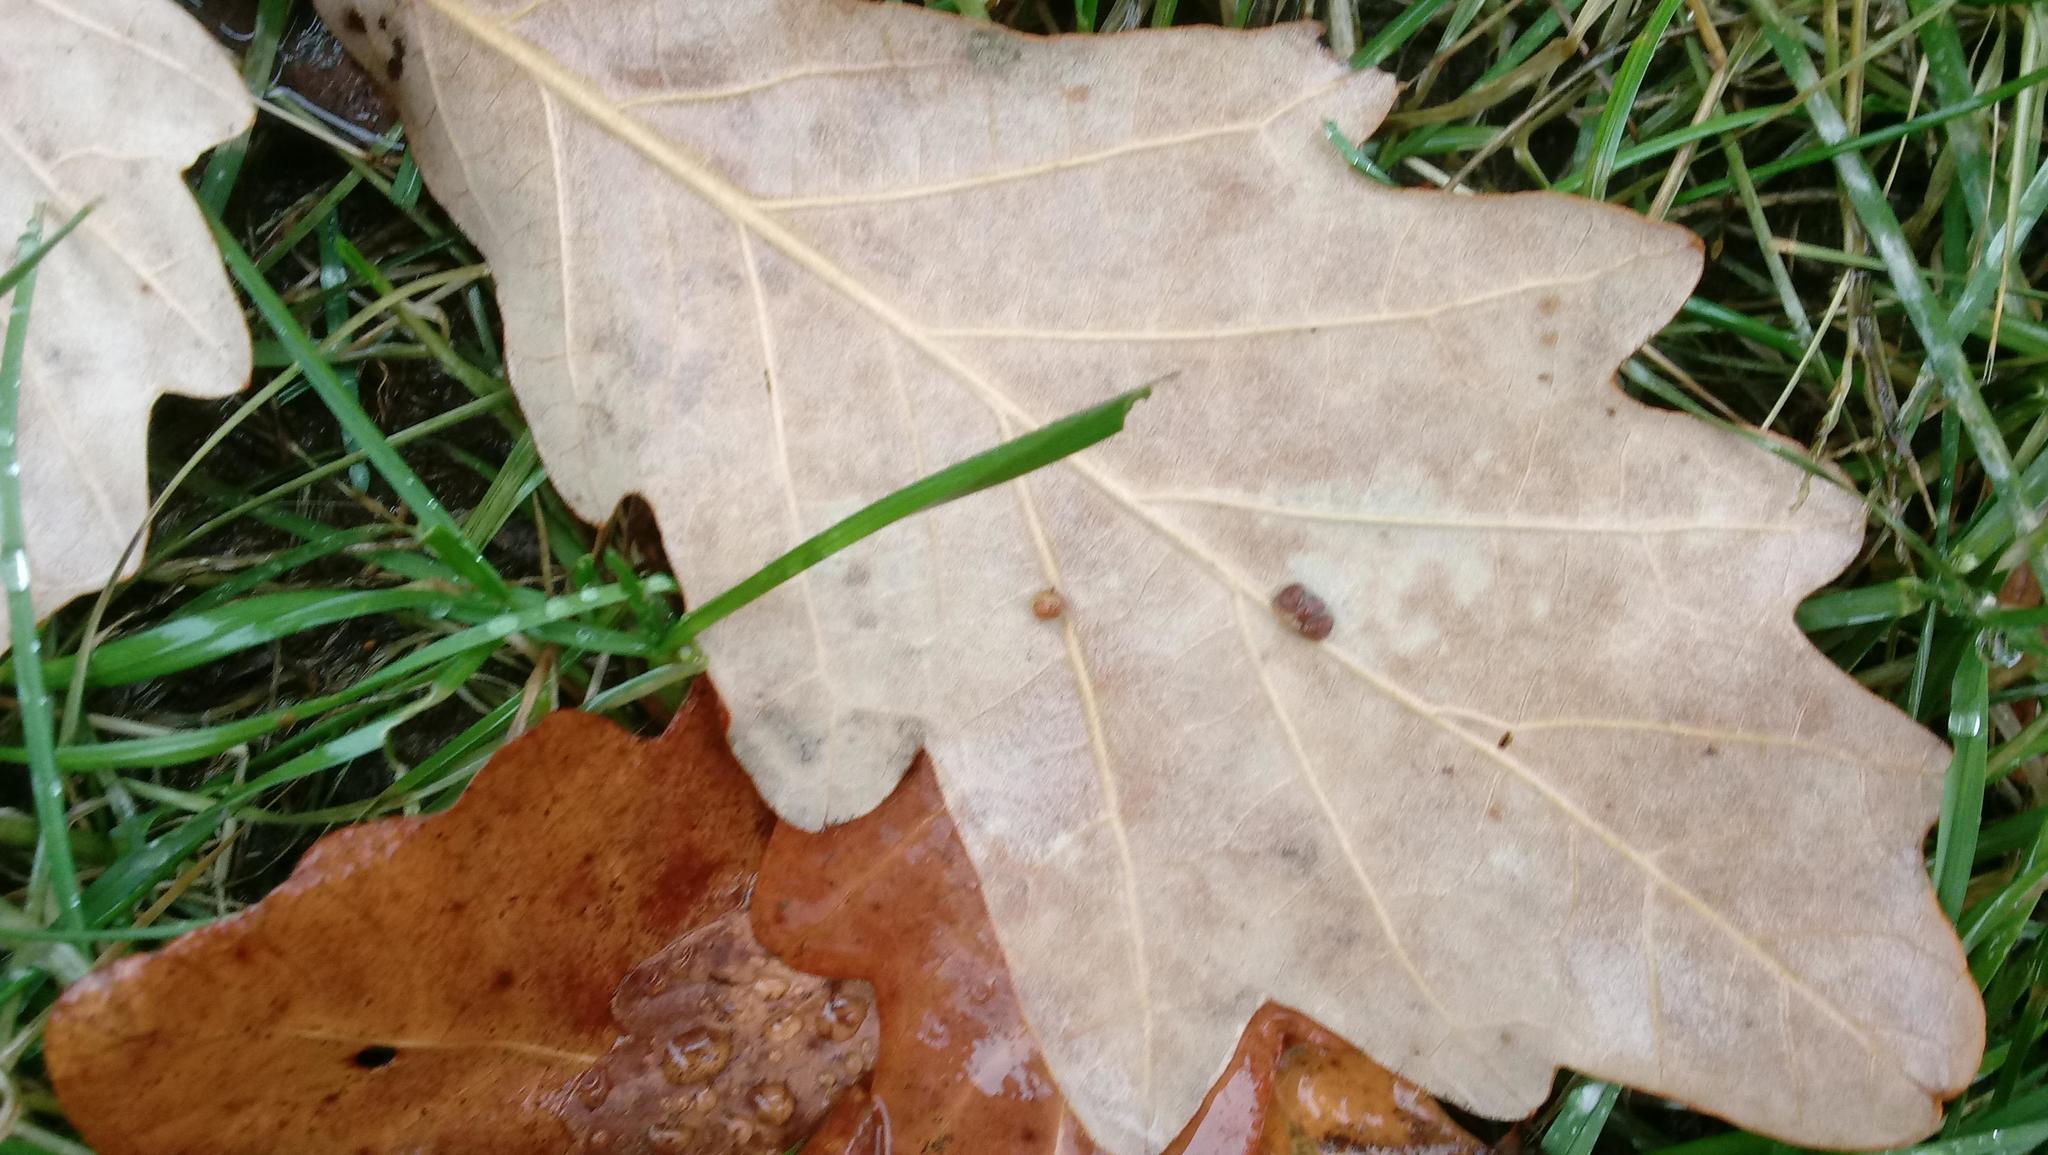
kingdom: Animalia
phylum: Arthropoda
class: Insecta
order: Hymenoptera
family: Cynipidae
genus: Andricus
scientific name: Andricus Druon ignotum
